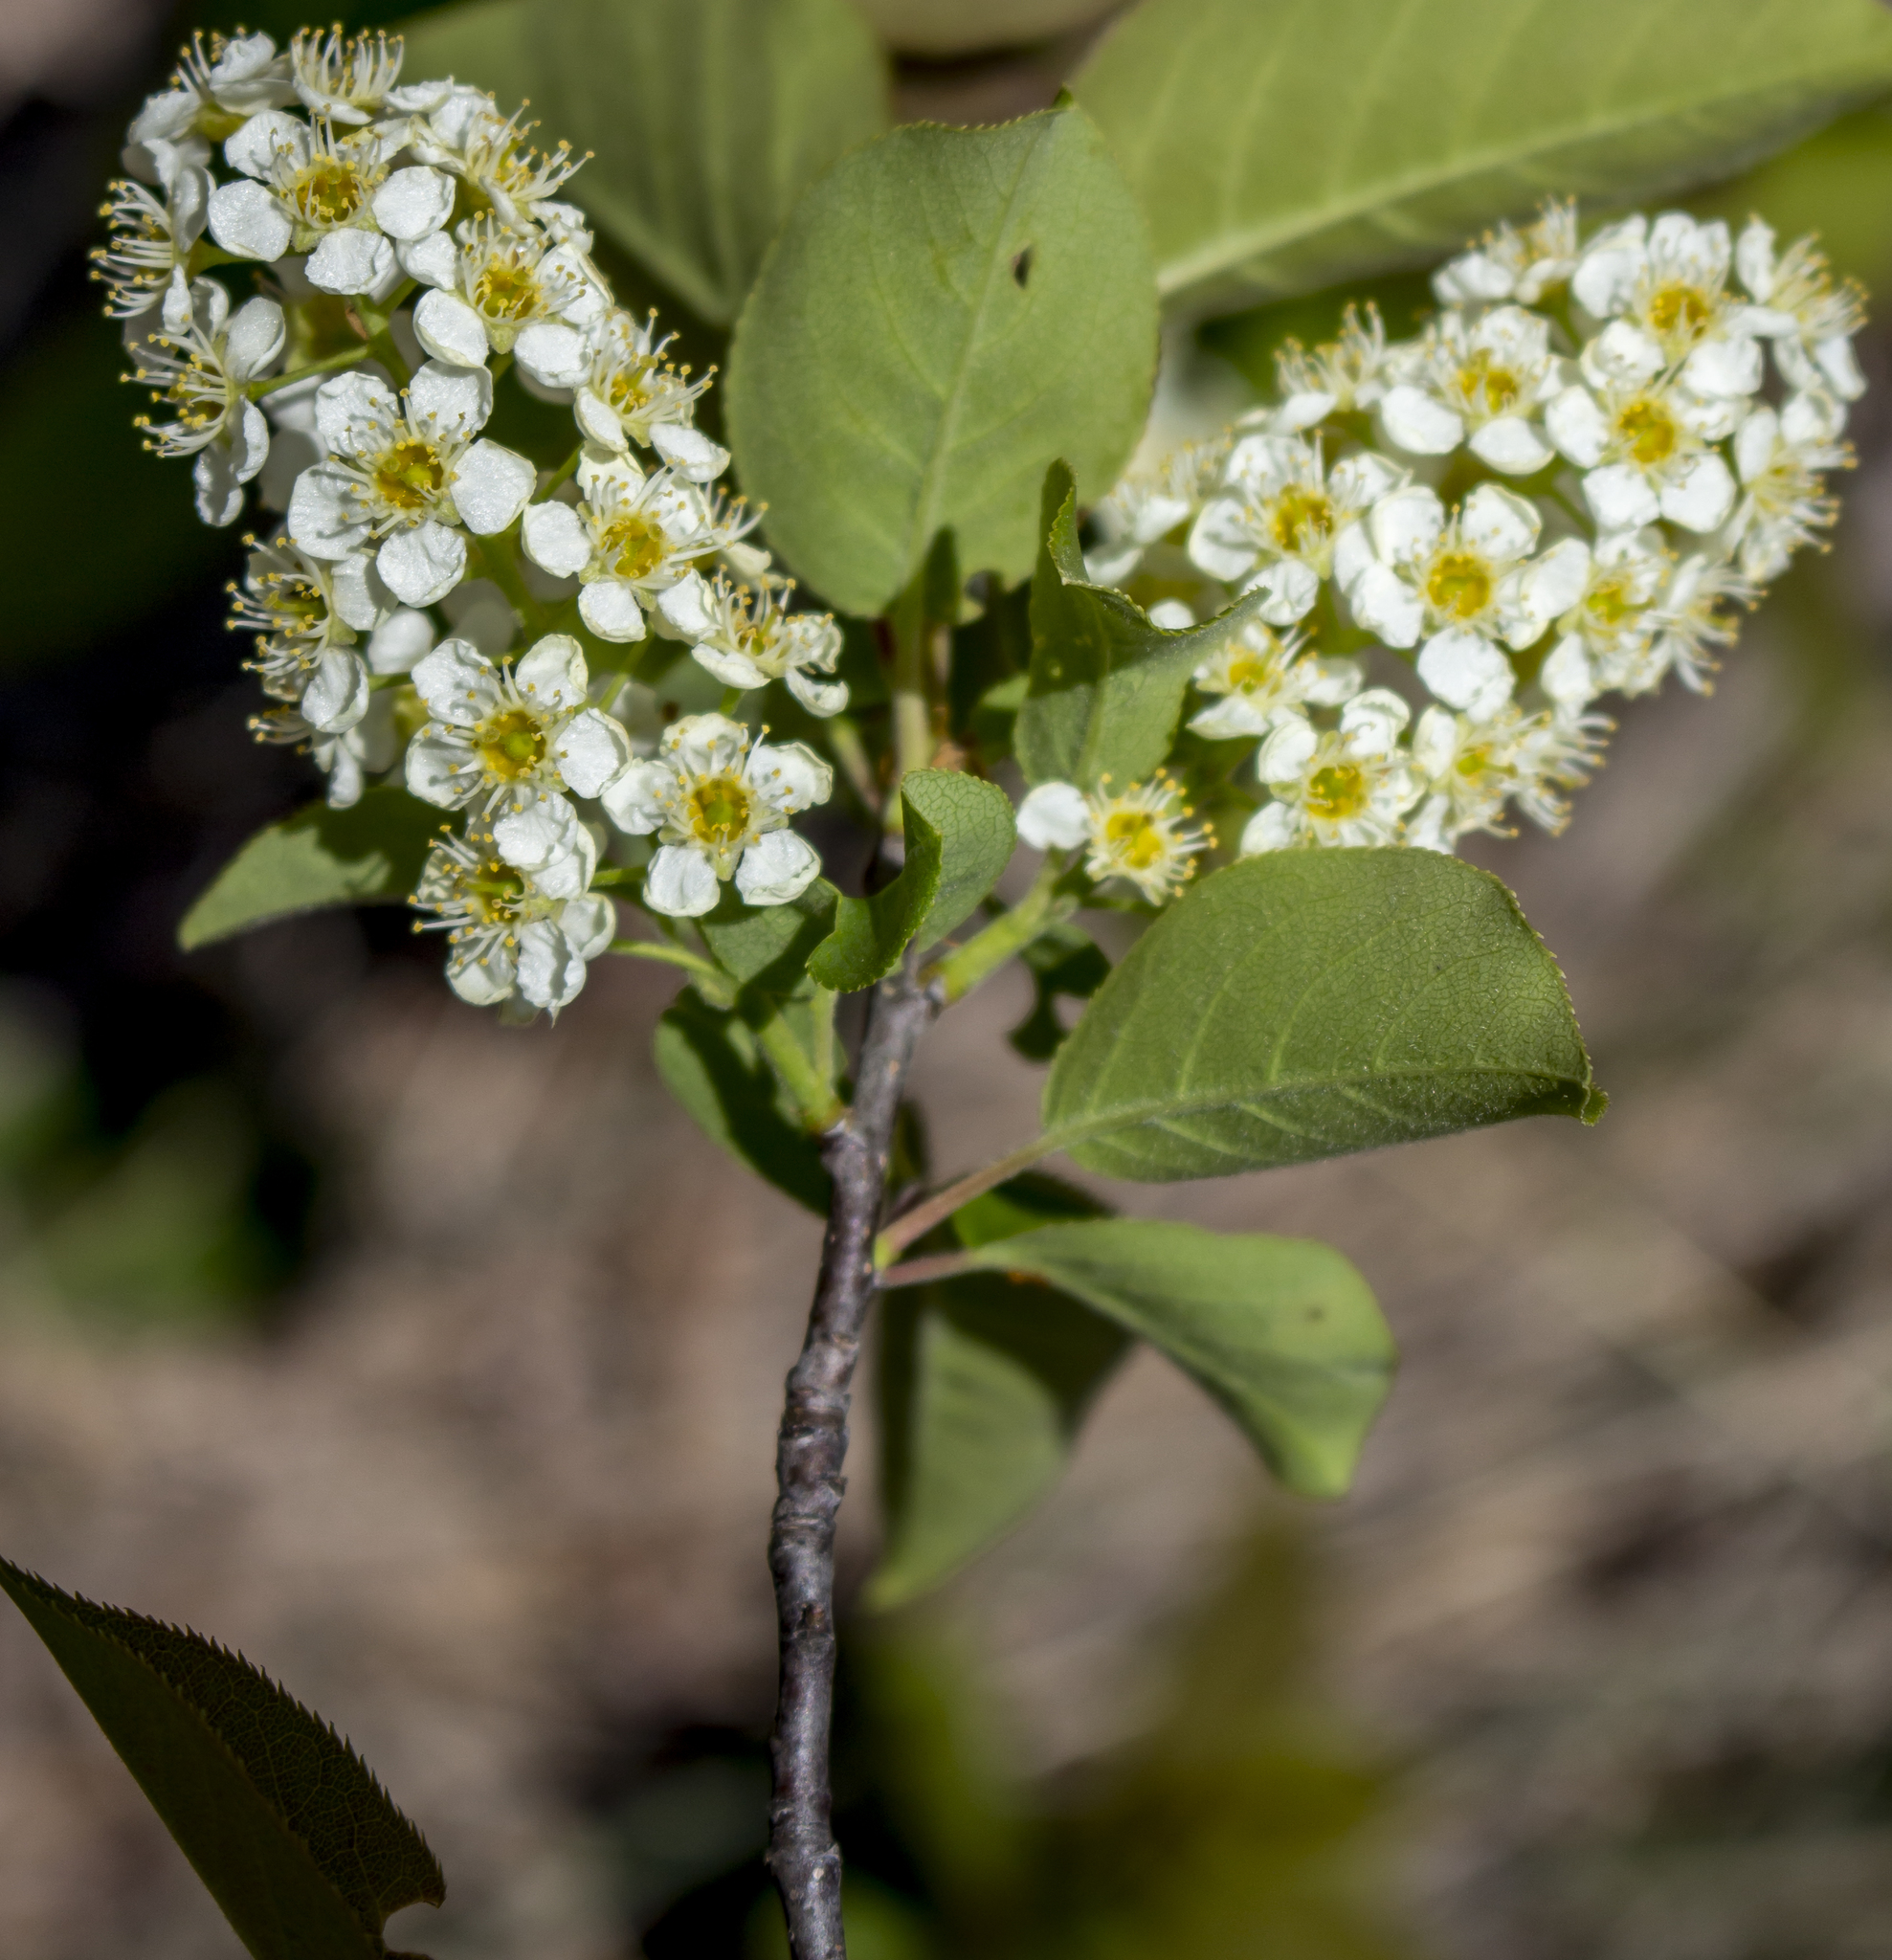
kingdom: Plantae
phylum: Tracheophyta
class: Magnoliopsida
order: Rosales
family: Rosaceae
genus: Prunus
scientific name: Prunus virginiana
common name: Chokecherry
